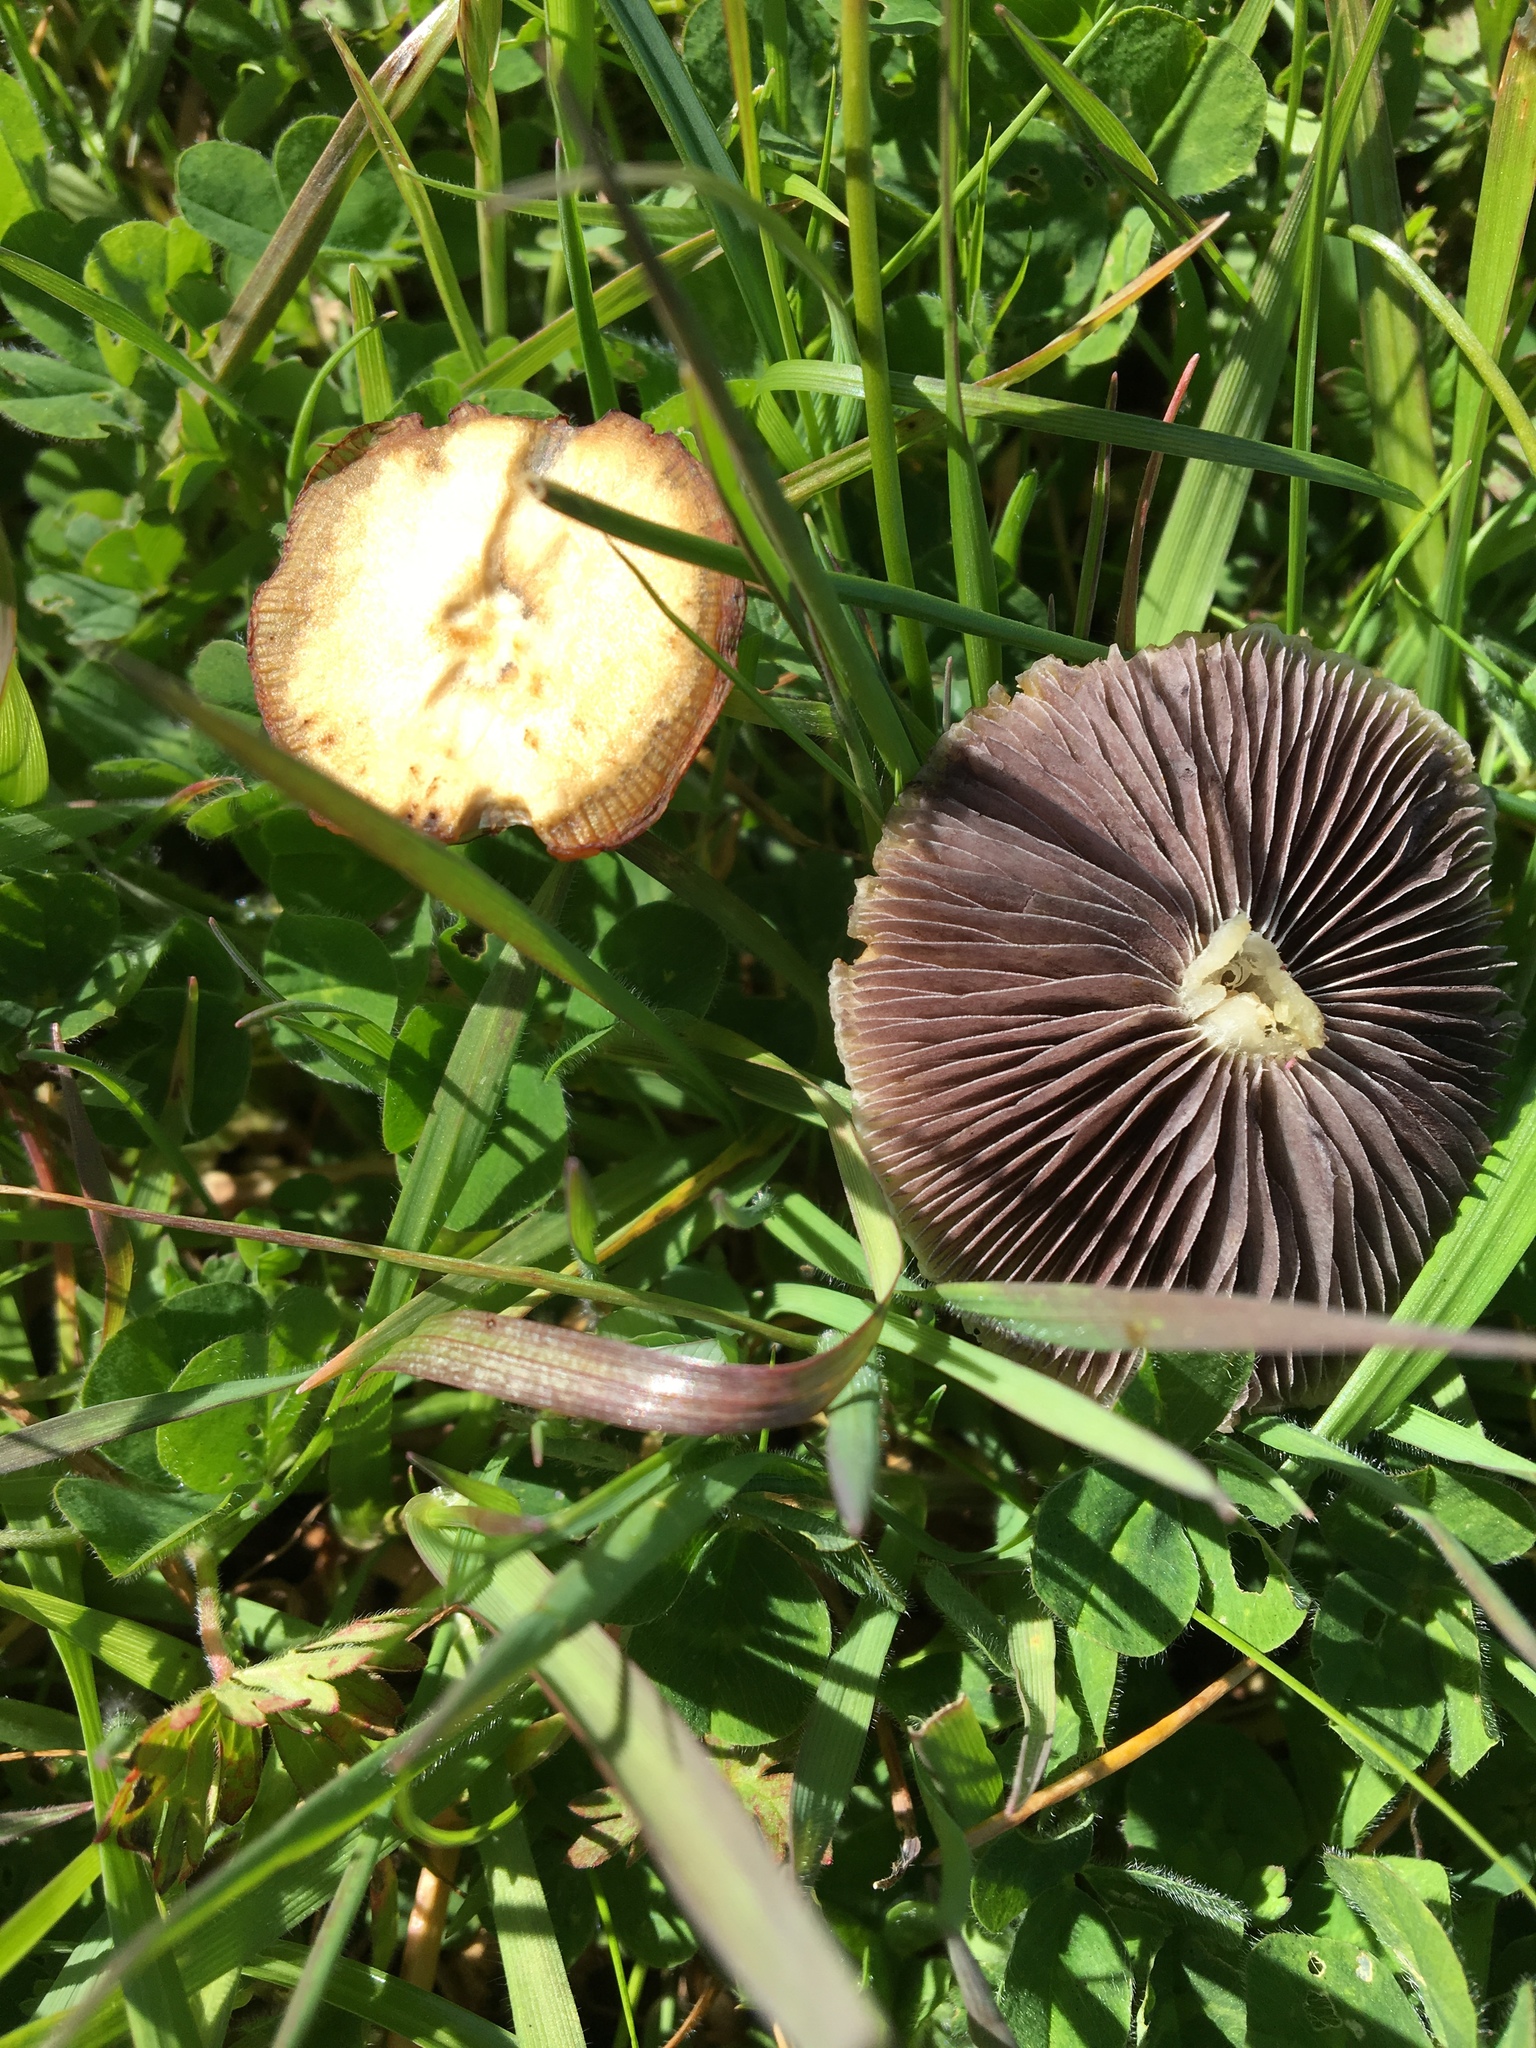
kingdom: Fungi
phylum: Basidiomycota
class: Agaricomycetes
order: Agaricales
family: Bolbitiaceae
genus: Bolbitius
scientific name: Bolbitius titubans
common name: Yellow fieldcap
